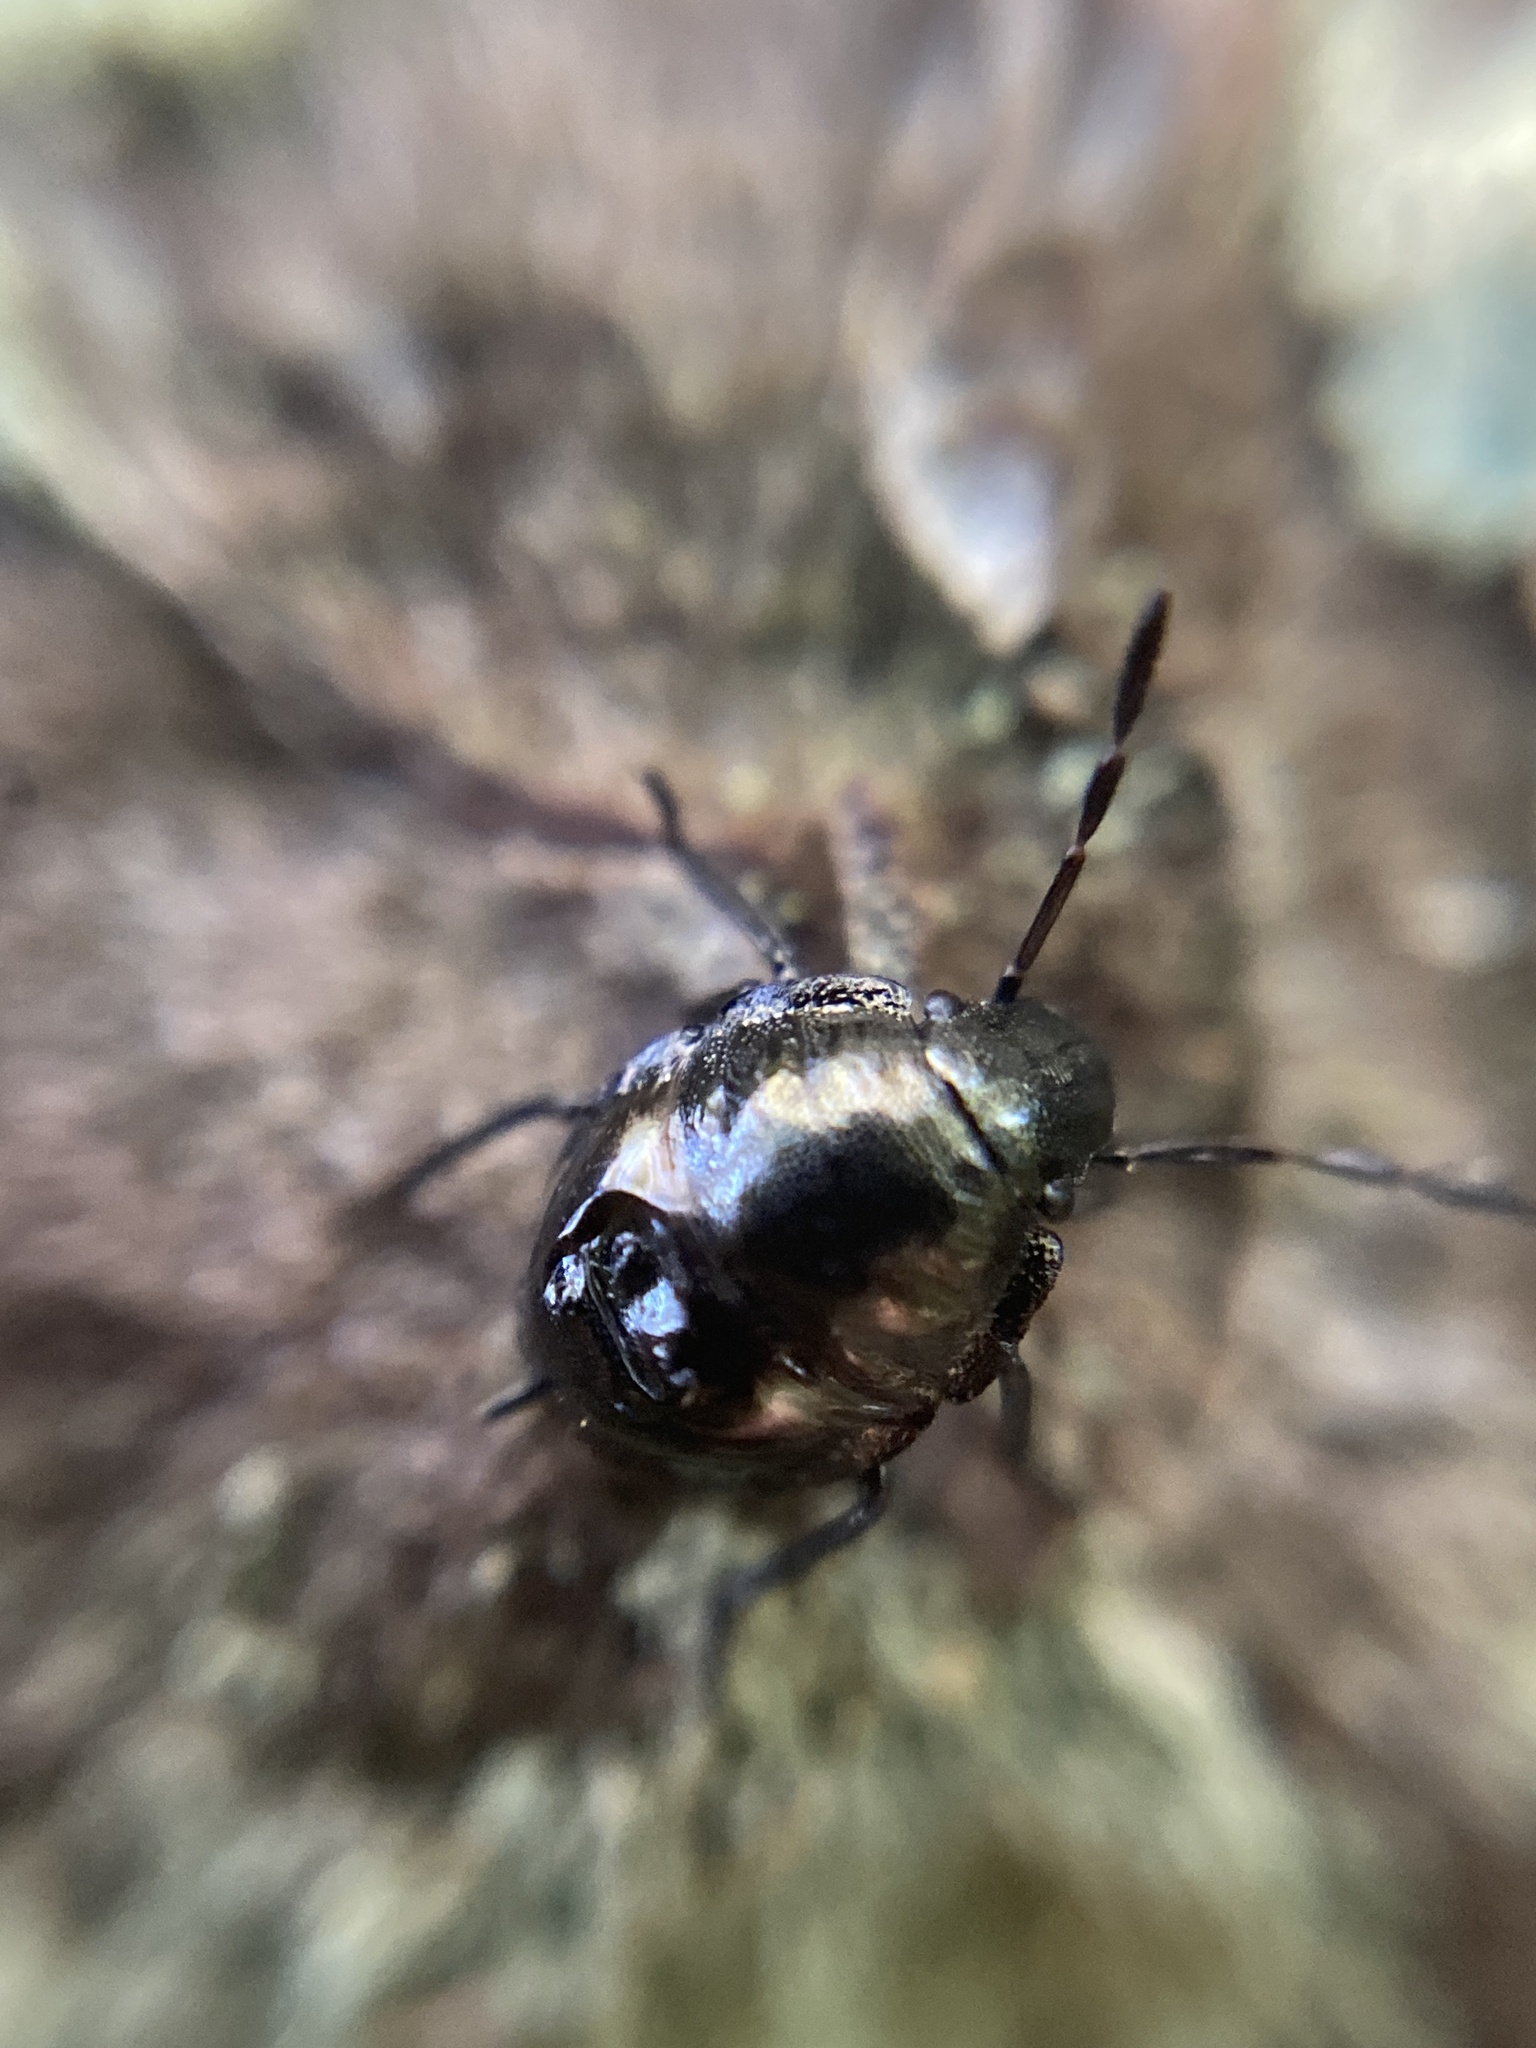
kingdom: Animalia
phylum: Arthropoda
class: Insecta
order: Hemiptera
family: Cydnidae
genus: Tritomegas
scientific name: Tritomegas bicolor
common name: Pied shieldbug
